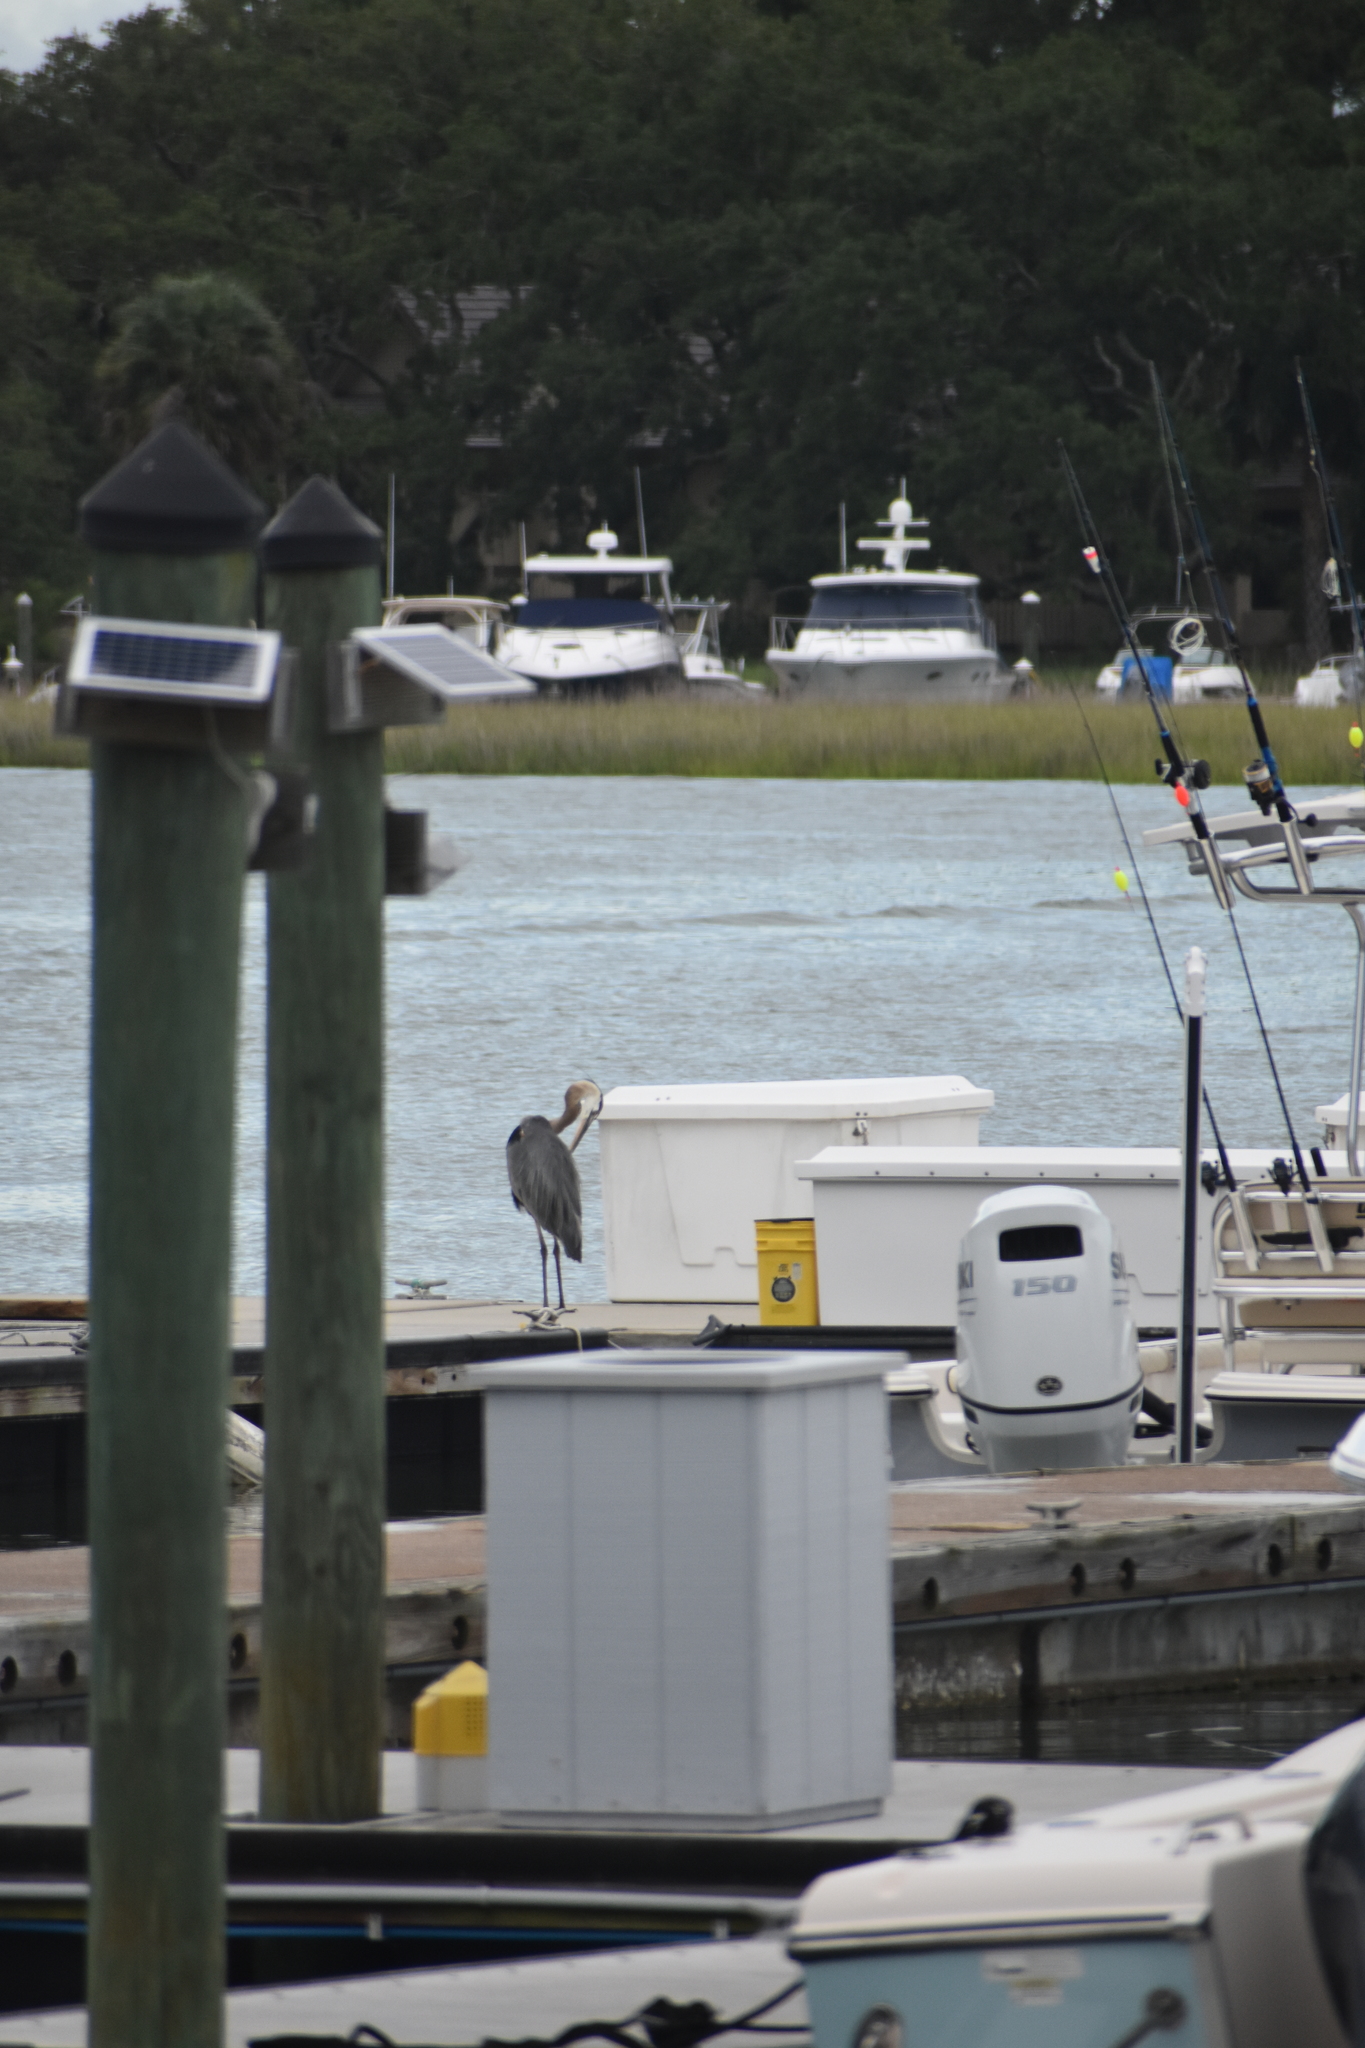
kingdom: Animalia
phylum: Chordata
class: Aves
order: Pelecaniformes
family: Ardeidae
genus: Ardea
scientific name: Ardea herodias
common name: Great blue heron
